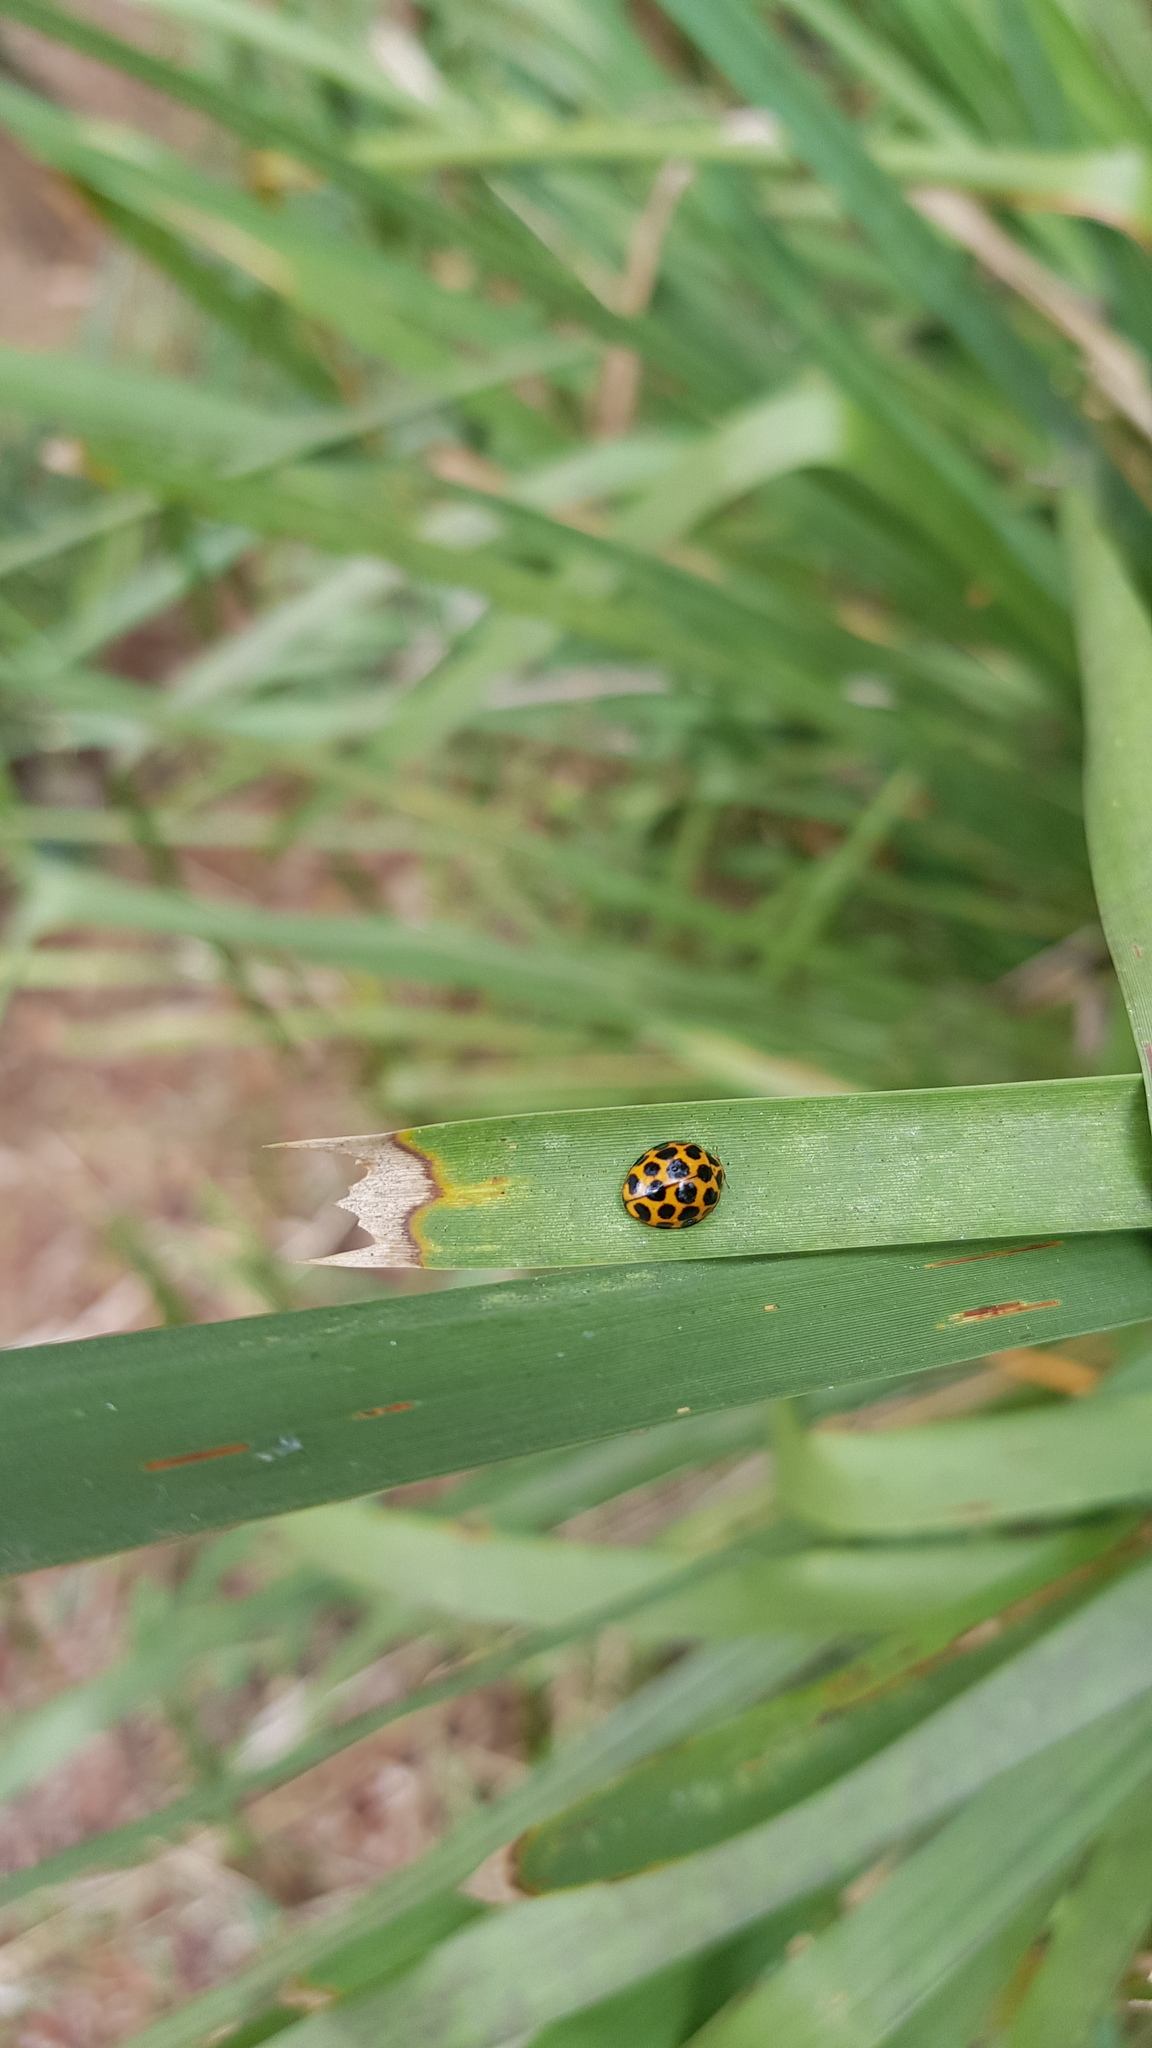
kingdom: Animalia
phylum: Arthropoda
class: Insecta
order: Coleoptera
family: Coccinellidae
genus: Harmonia
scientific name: Harmonia conformis
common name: Common spotted ladybird beetle
